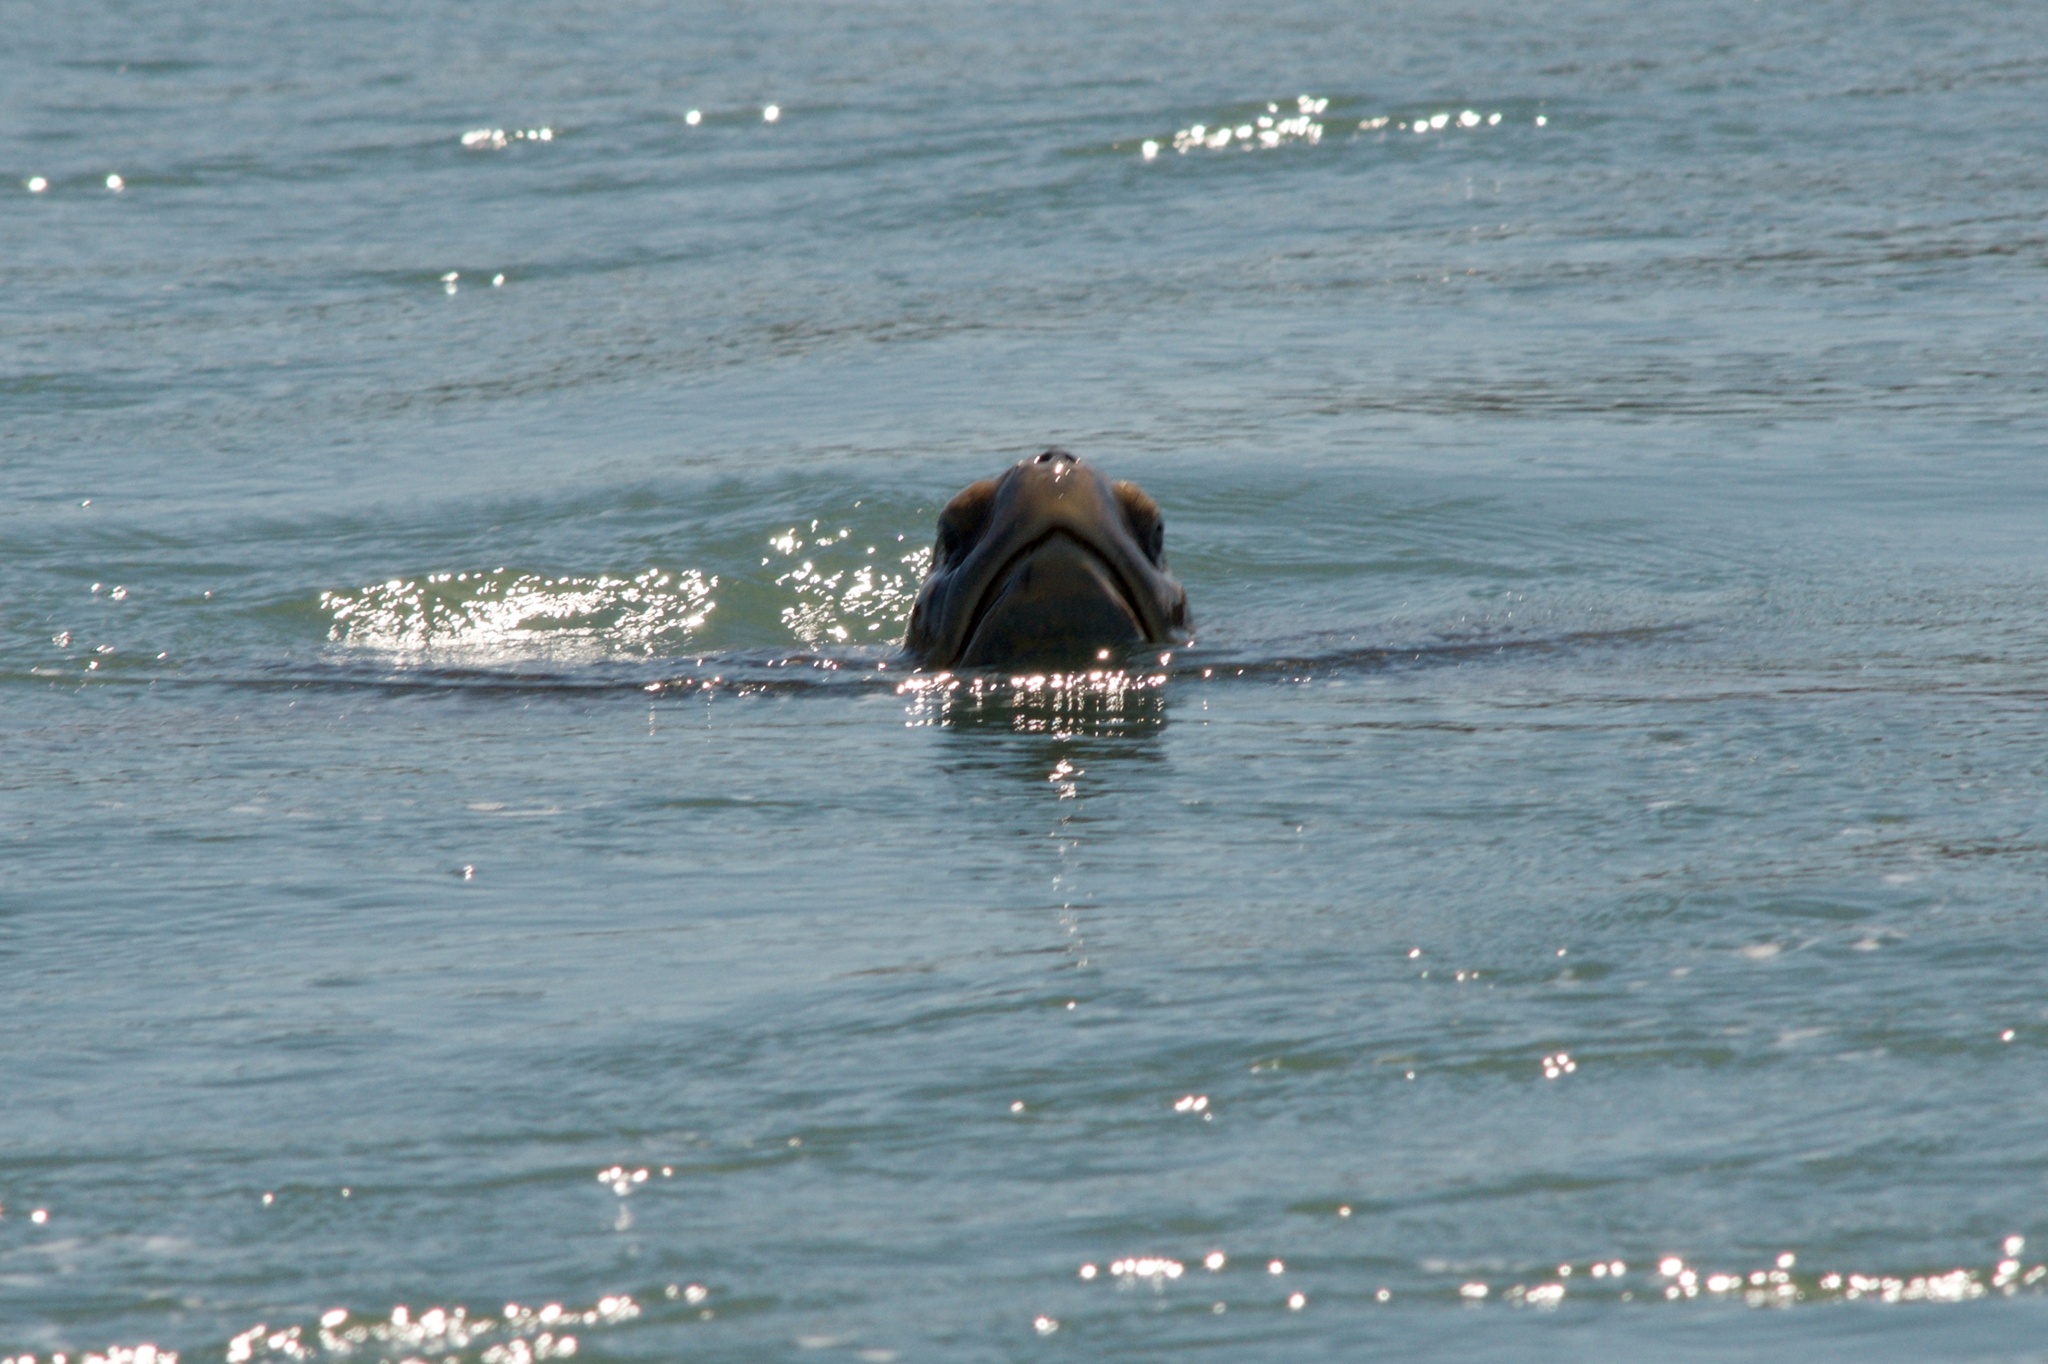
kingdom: Animalia
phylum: Chordata
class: Testudines
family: Cheloniidae
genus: Chelonia
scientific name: Chelonia mydas
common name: Green turtle
